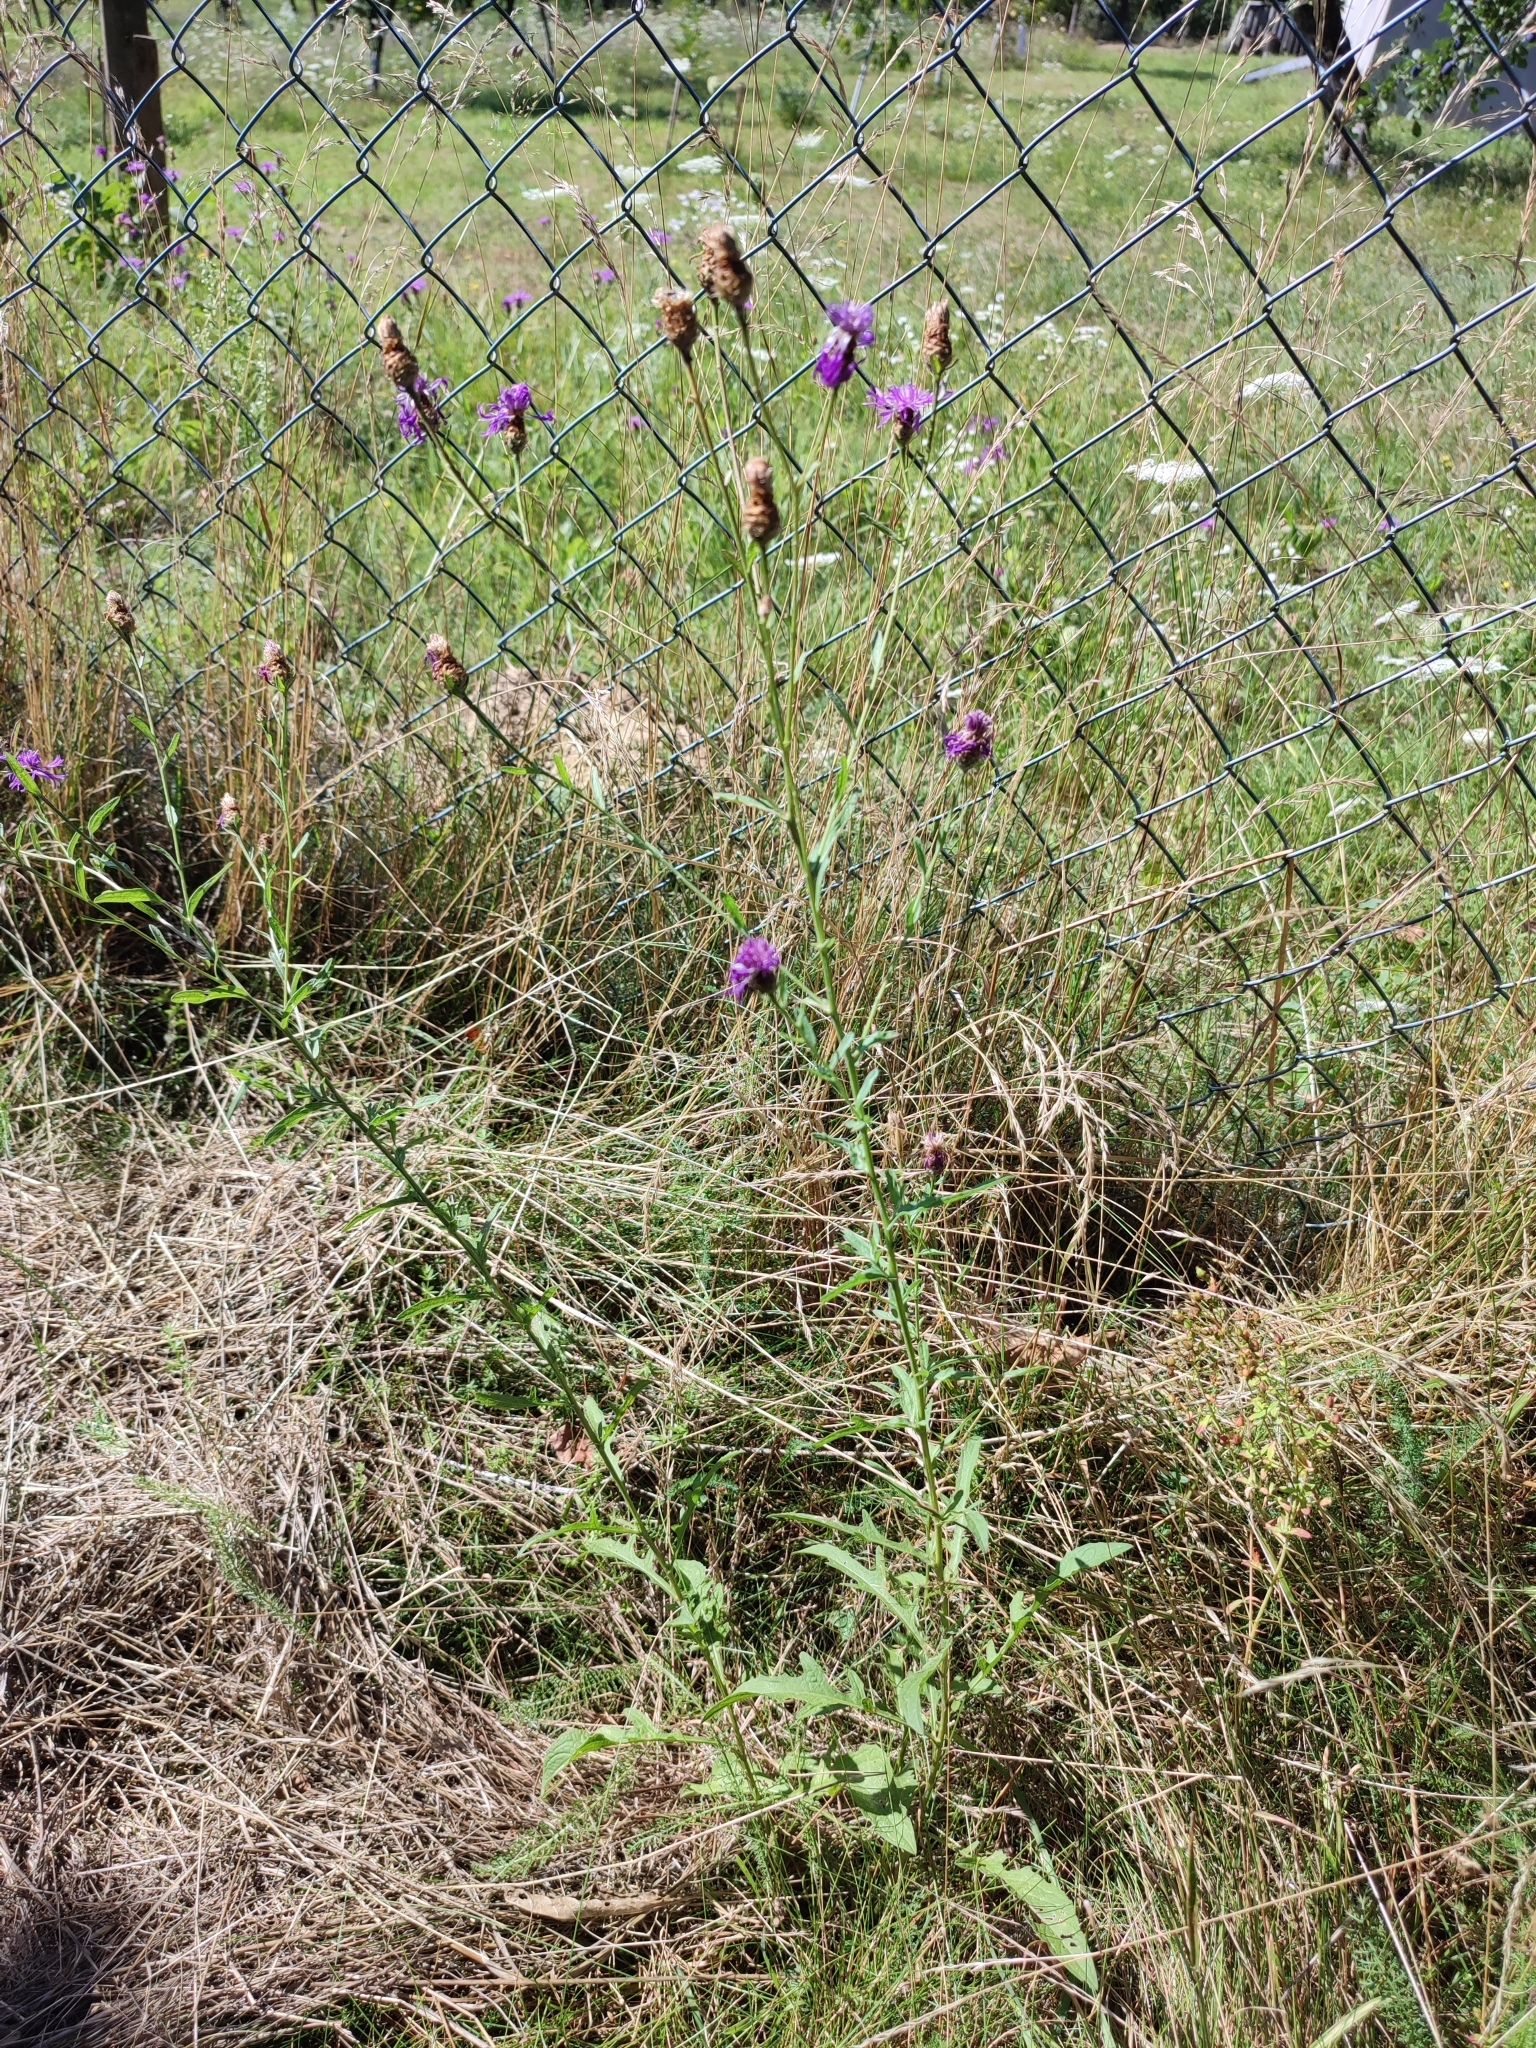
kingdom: Plantae
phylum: Tracheophyta
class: Magnoliopsida
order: Asterales
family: Asteraceae
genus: Centaurea
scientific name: Centaurea jacea
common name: Brown knapweed
